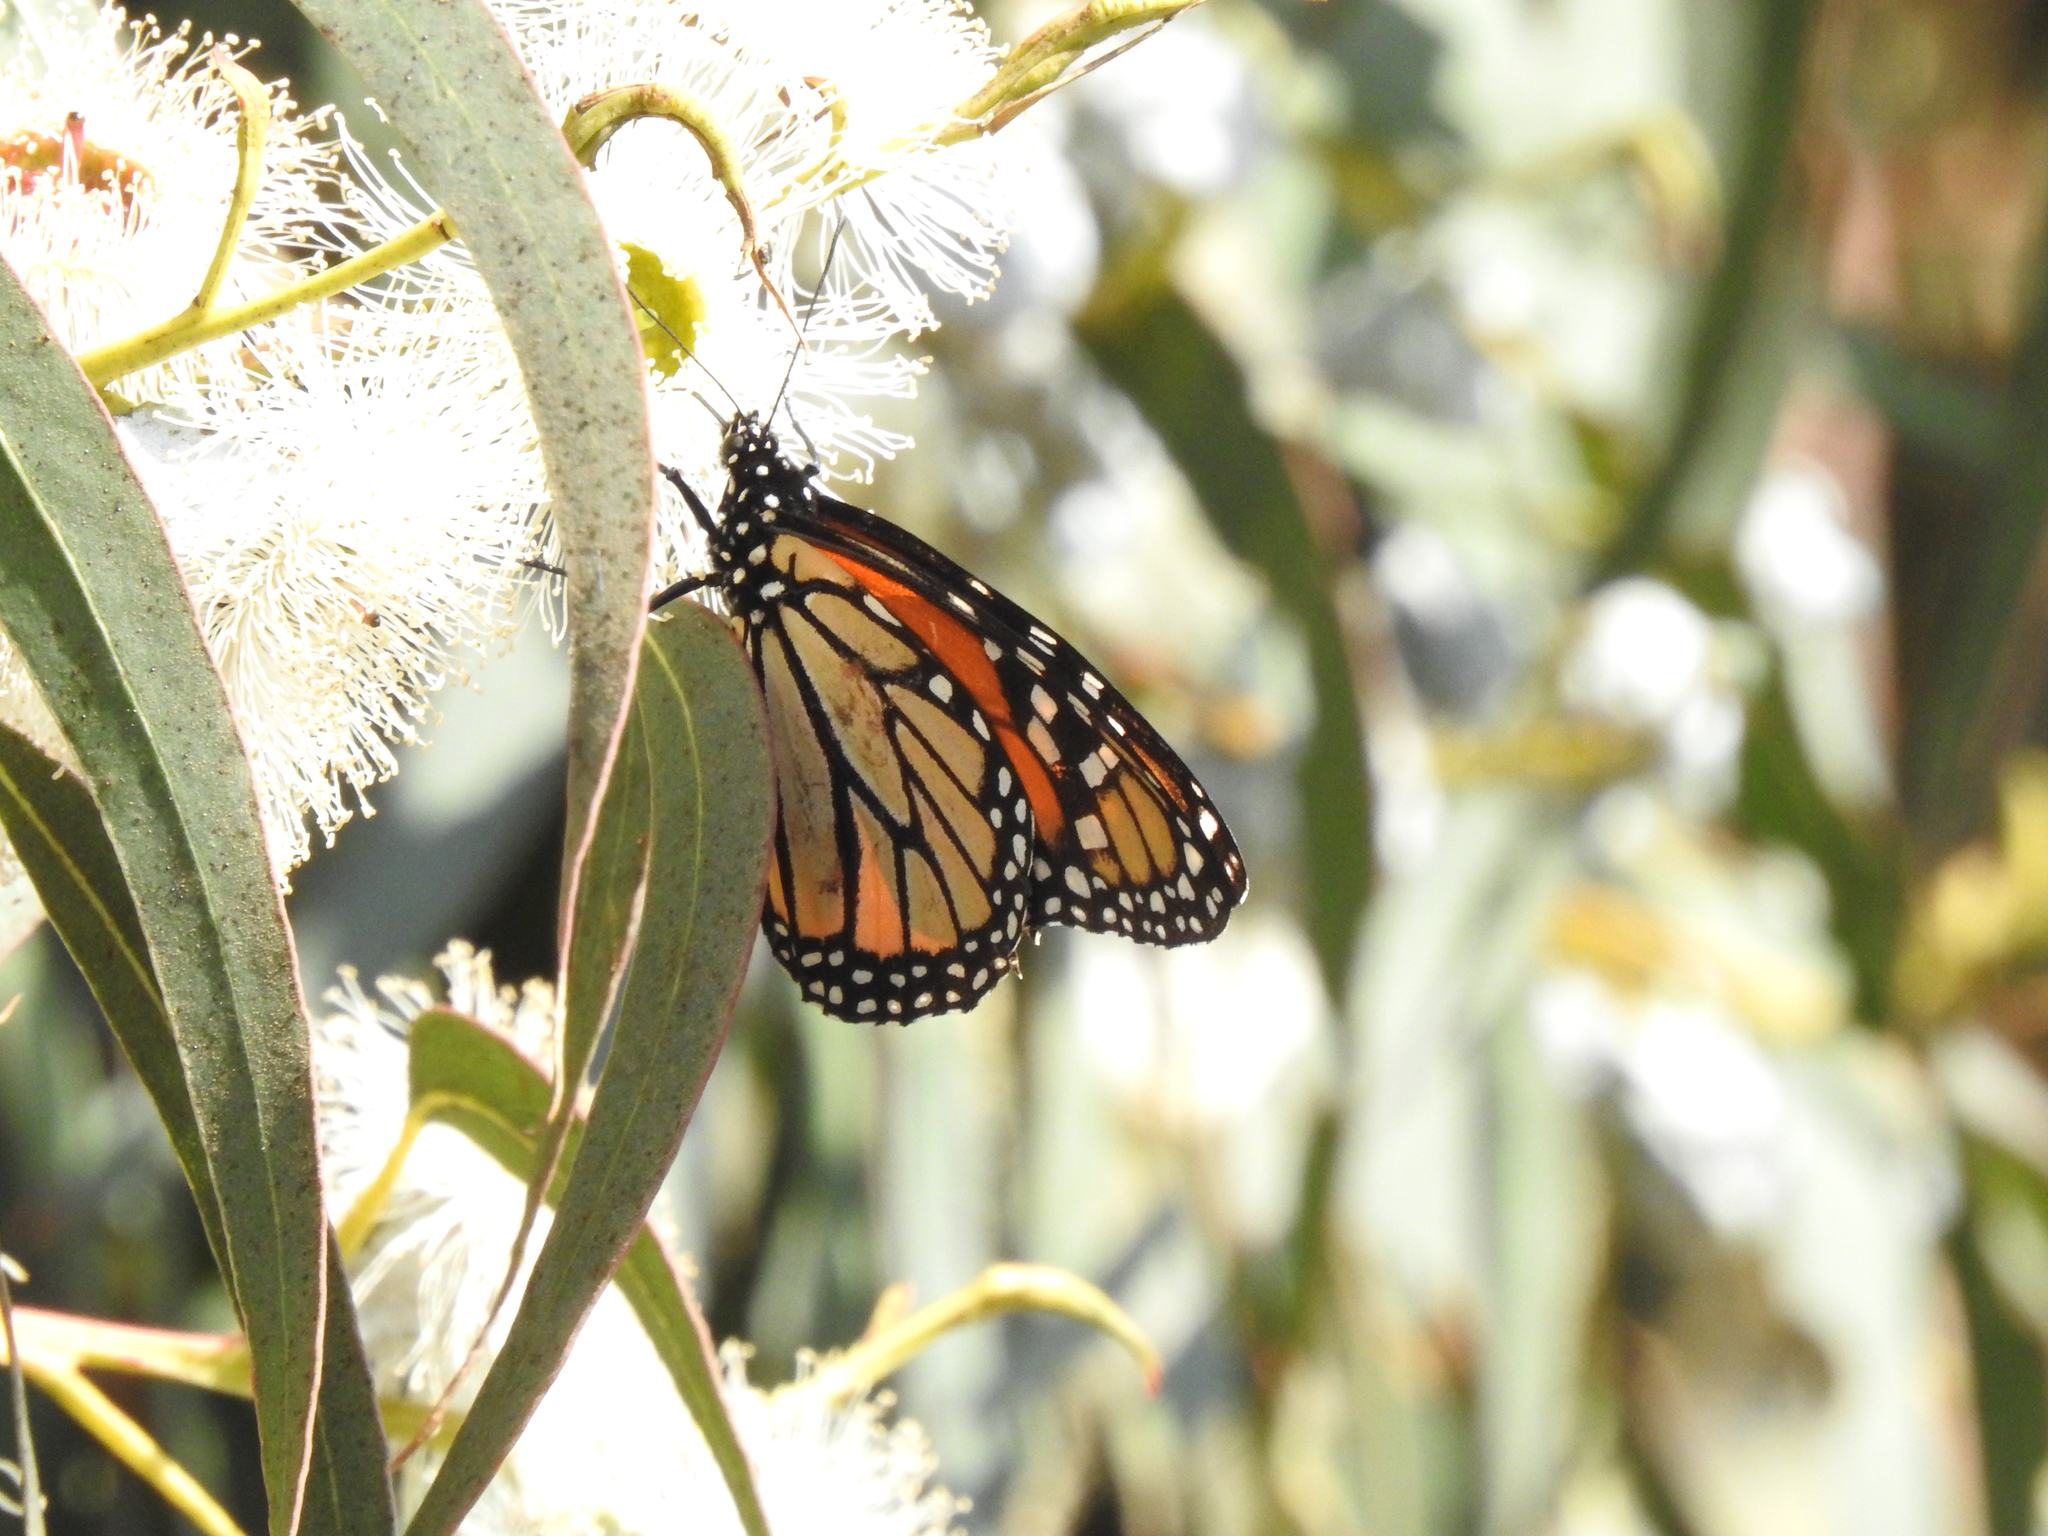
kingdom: Animalia
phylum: Arthropoda
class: Insecta
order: Lepidoptera
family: Nymphalidae
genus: Danaus
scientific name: Danaus plexippus
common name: Monarch
